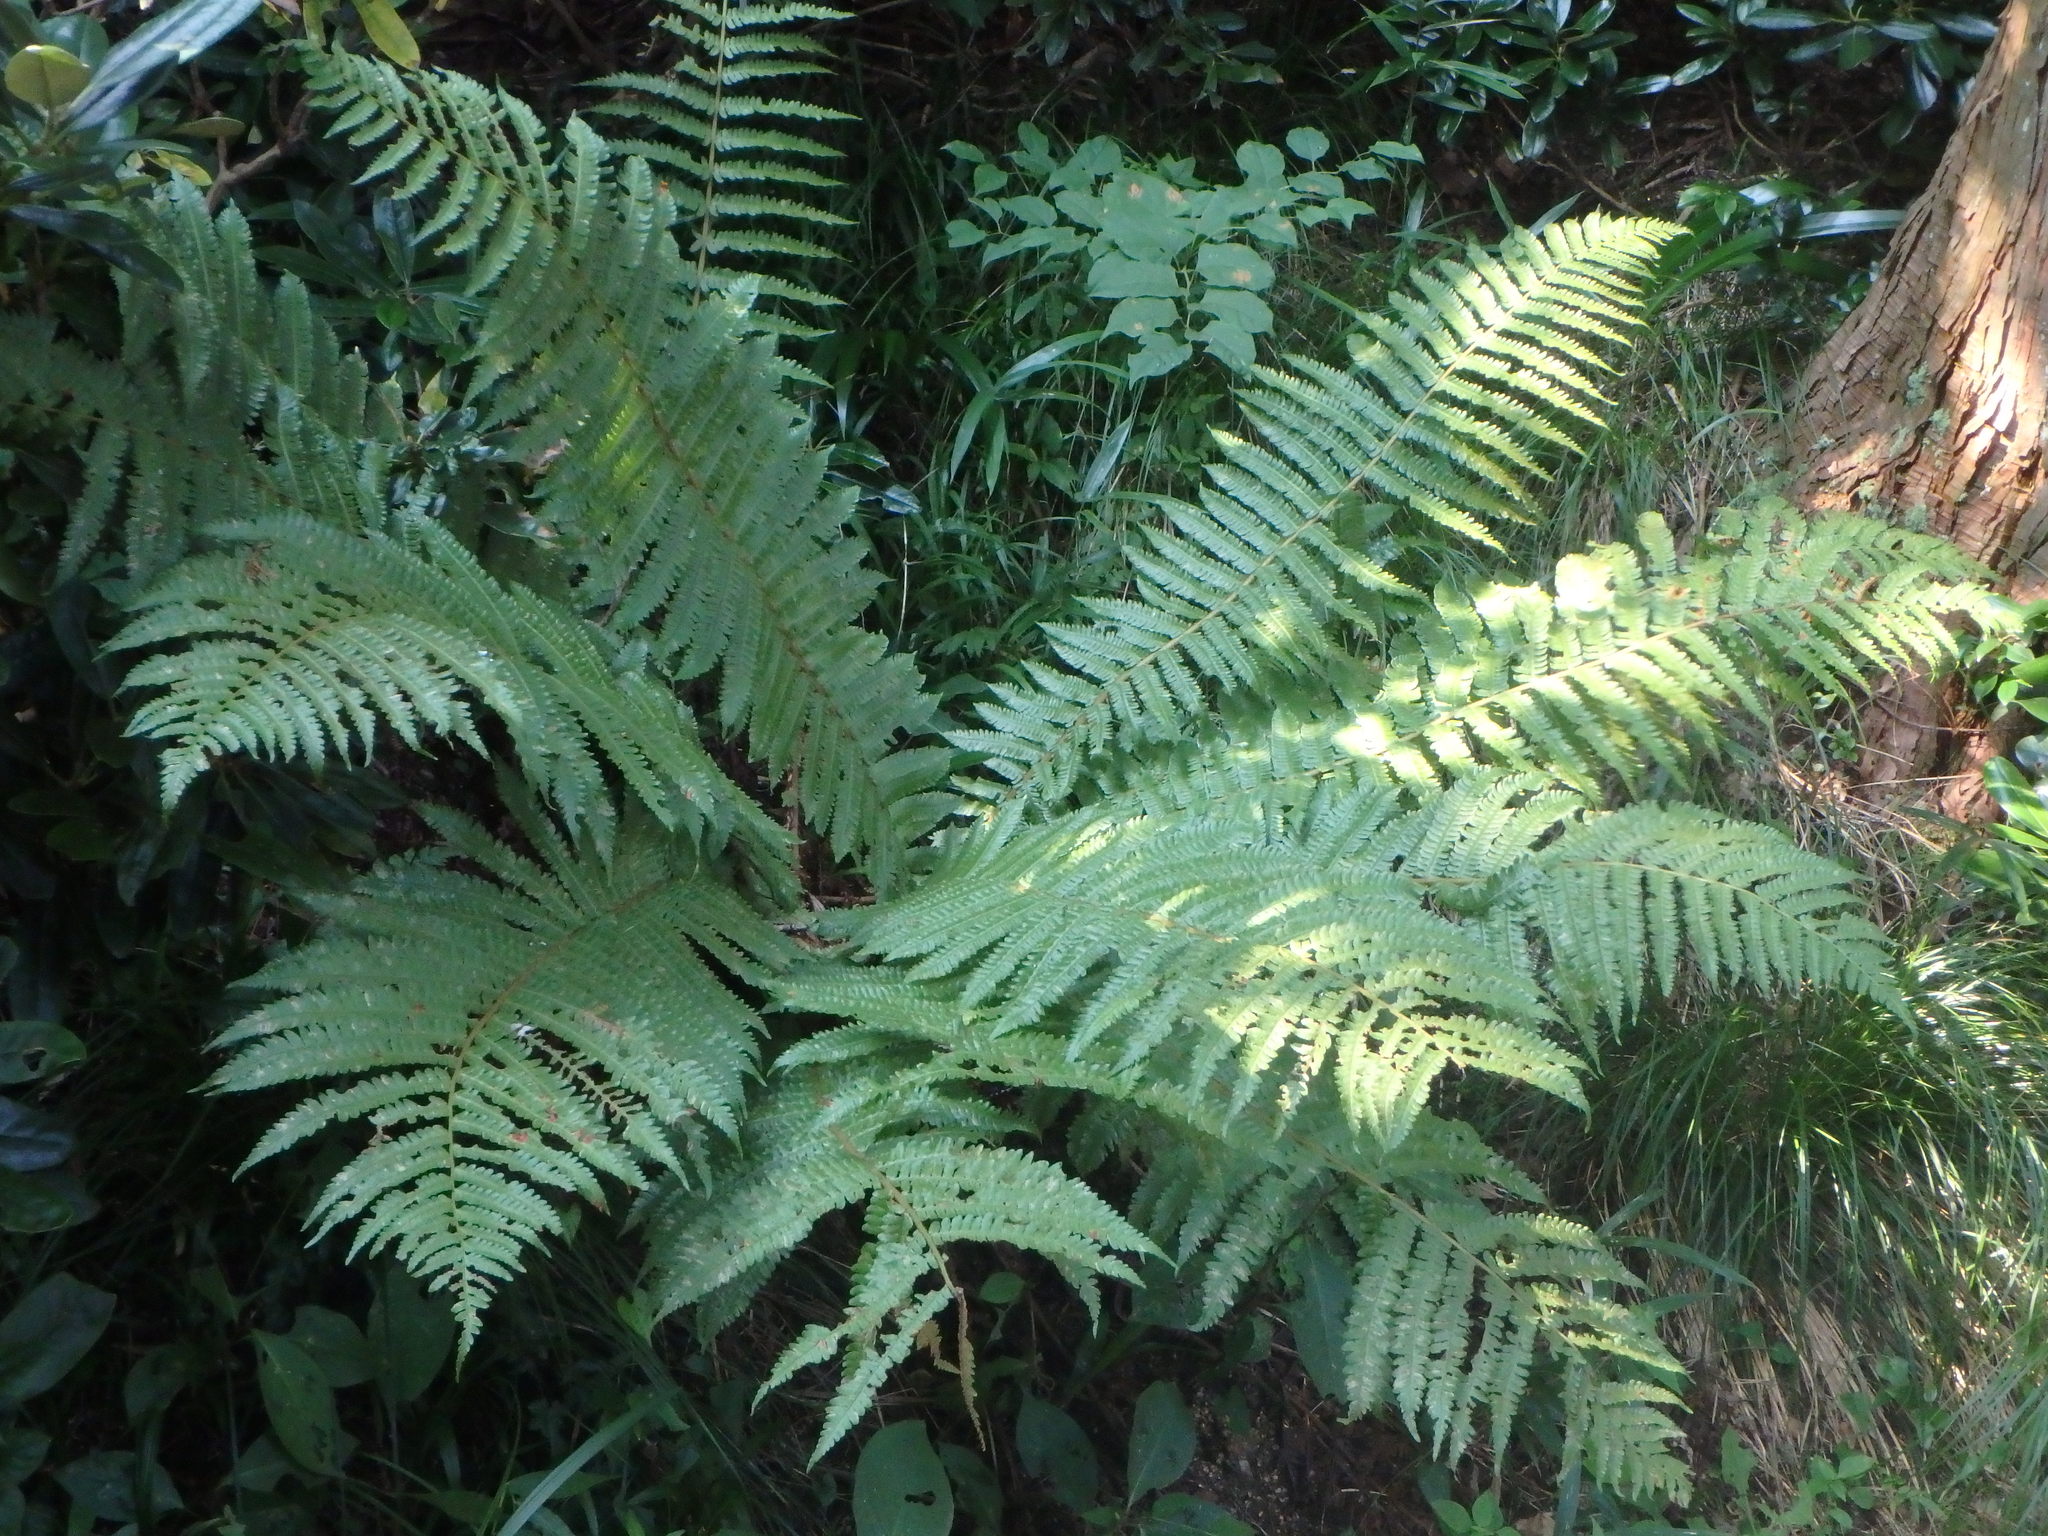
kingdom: Plantae
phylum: Tracheophyta
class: Polypodiopsida
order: Polypodiales
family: Dryopteridaceae
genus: Dryopteris
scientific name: Dryopteris crassirhizoma
